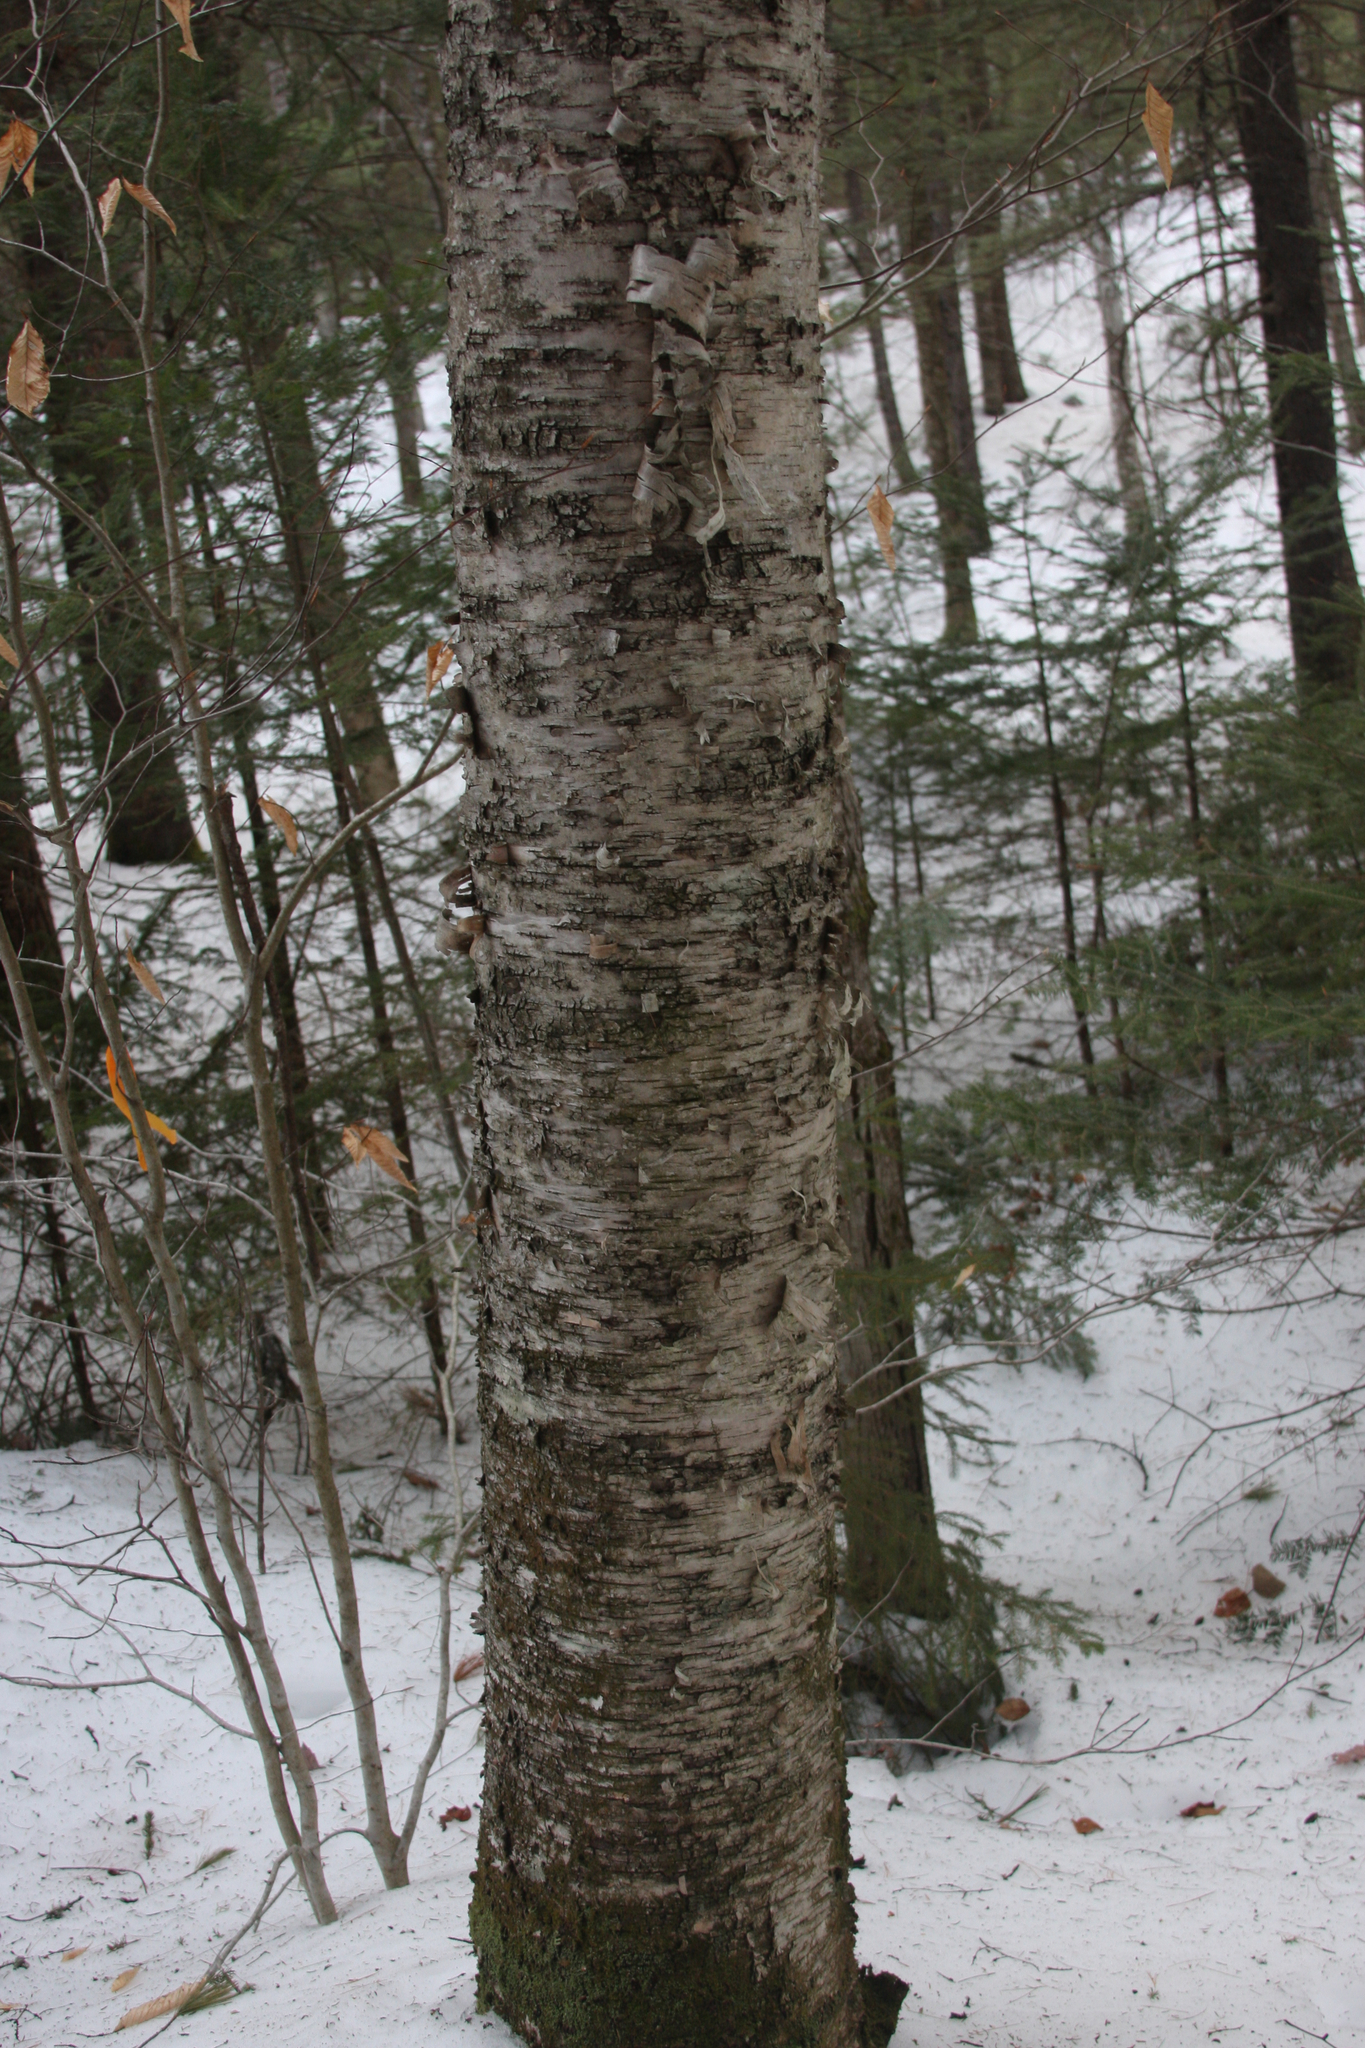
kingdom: Plantae
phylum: Tracheophyta
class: Magnoliopsida
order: Fagales
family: Betulaceae
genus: Betula
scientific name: Betula alleghaniensis
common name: Yellow birch
